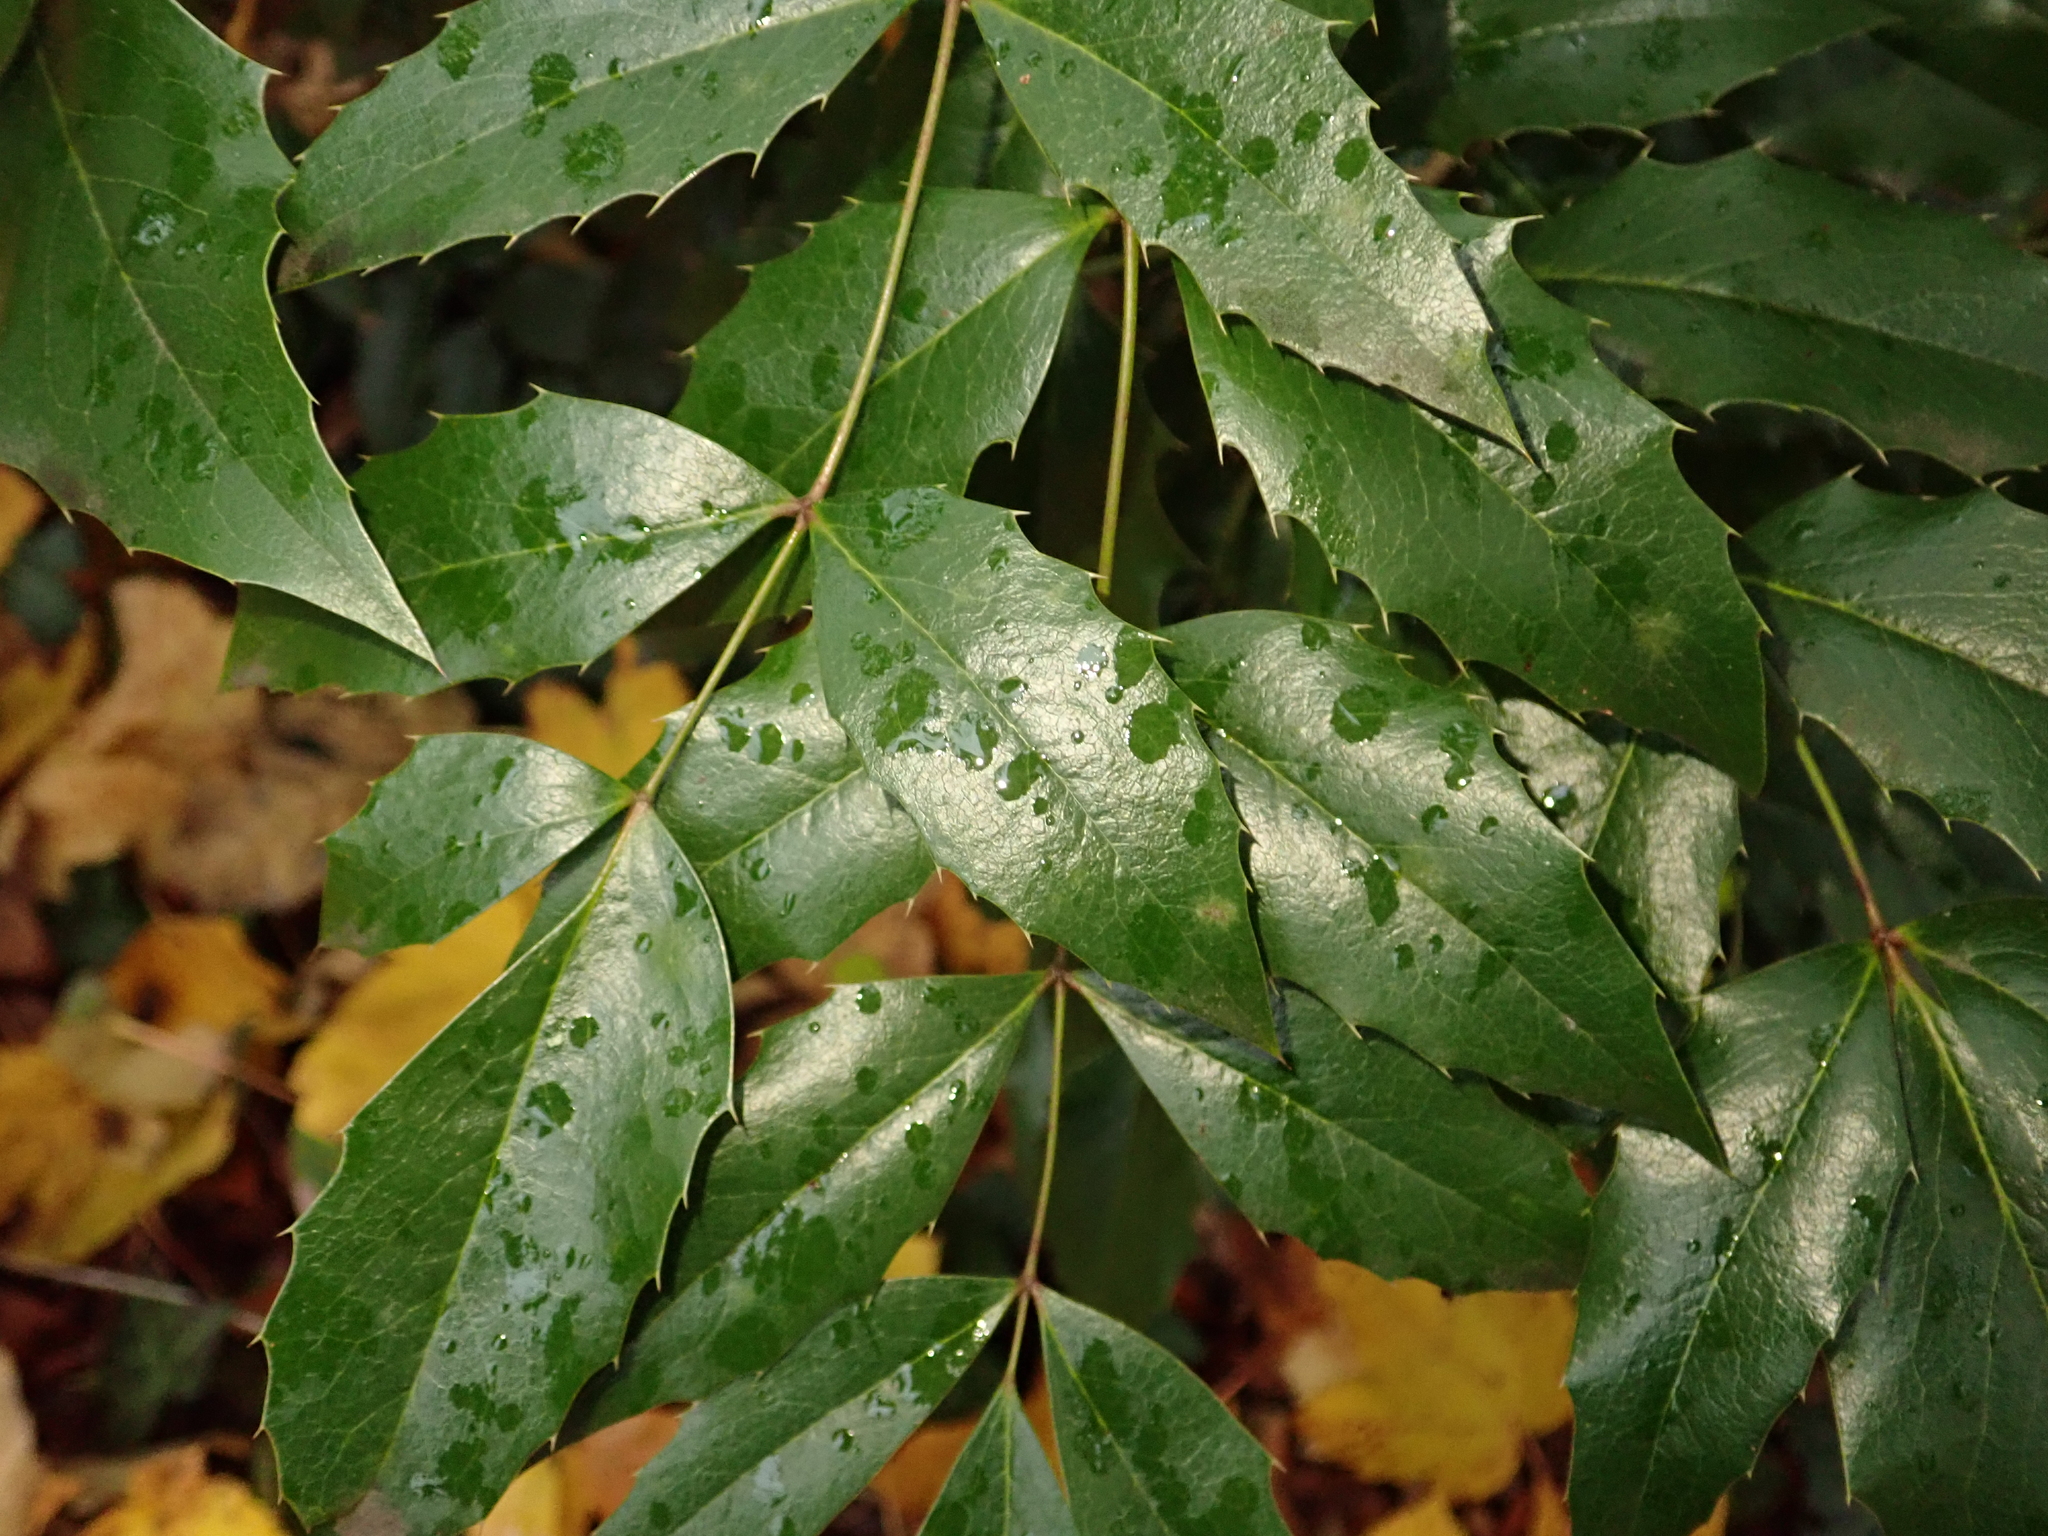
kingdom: Plantae
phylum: Tracheophyta
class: Magnoliopsida
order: Ranunculales
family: Berberidaceae
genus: Mahonia
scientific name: Mahonia aquifolium
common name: Oregon-grape
